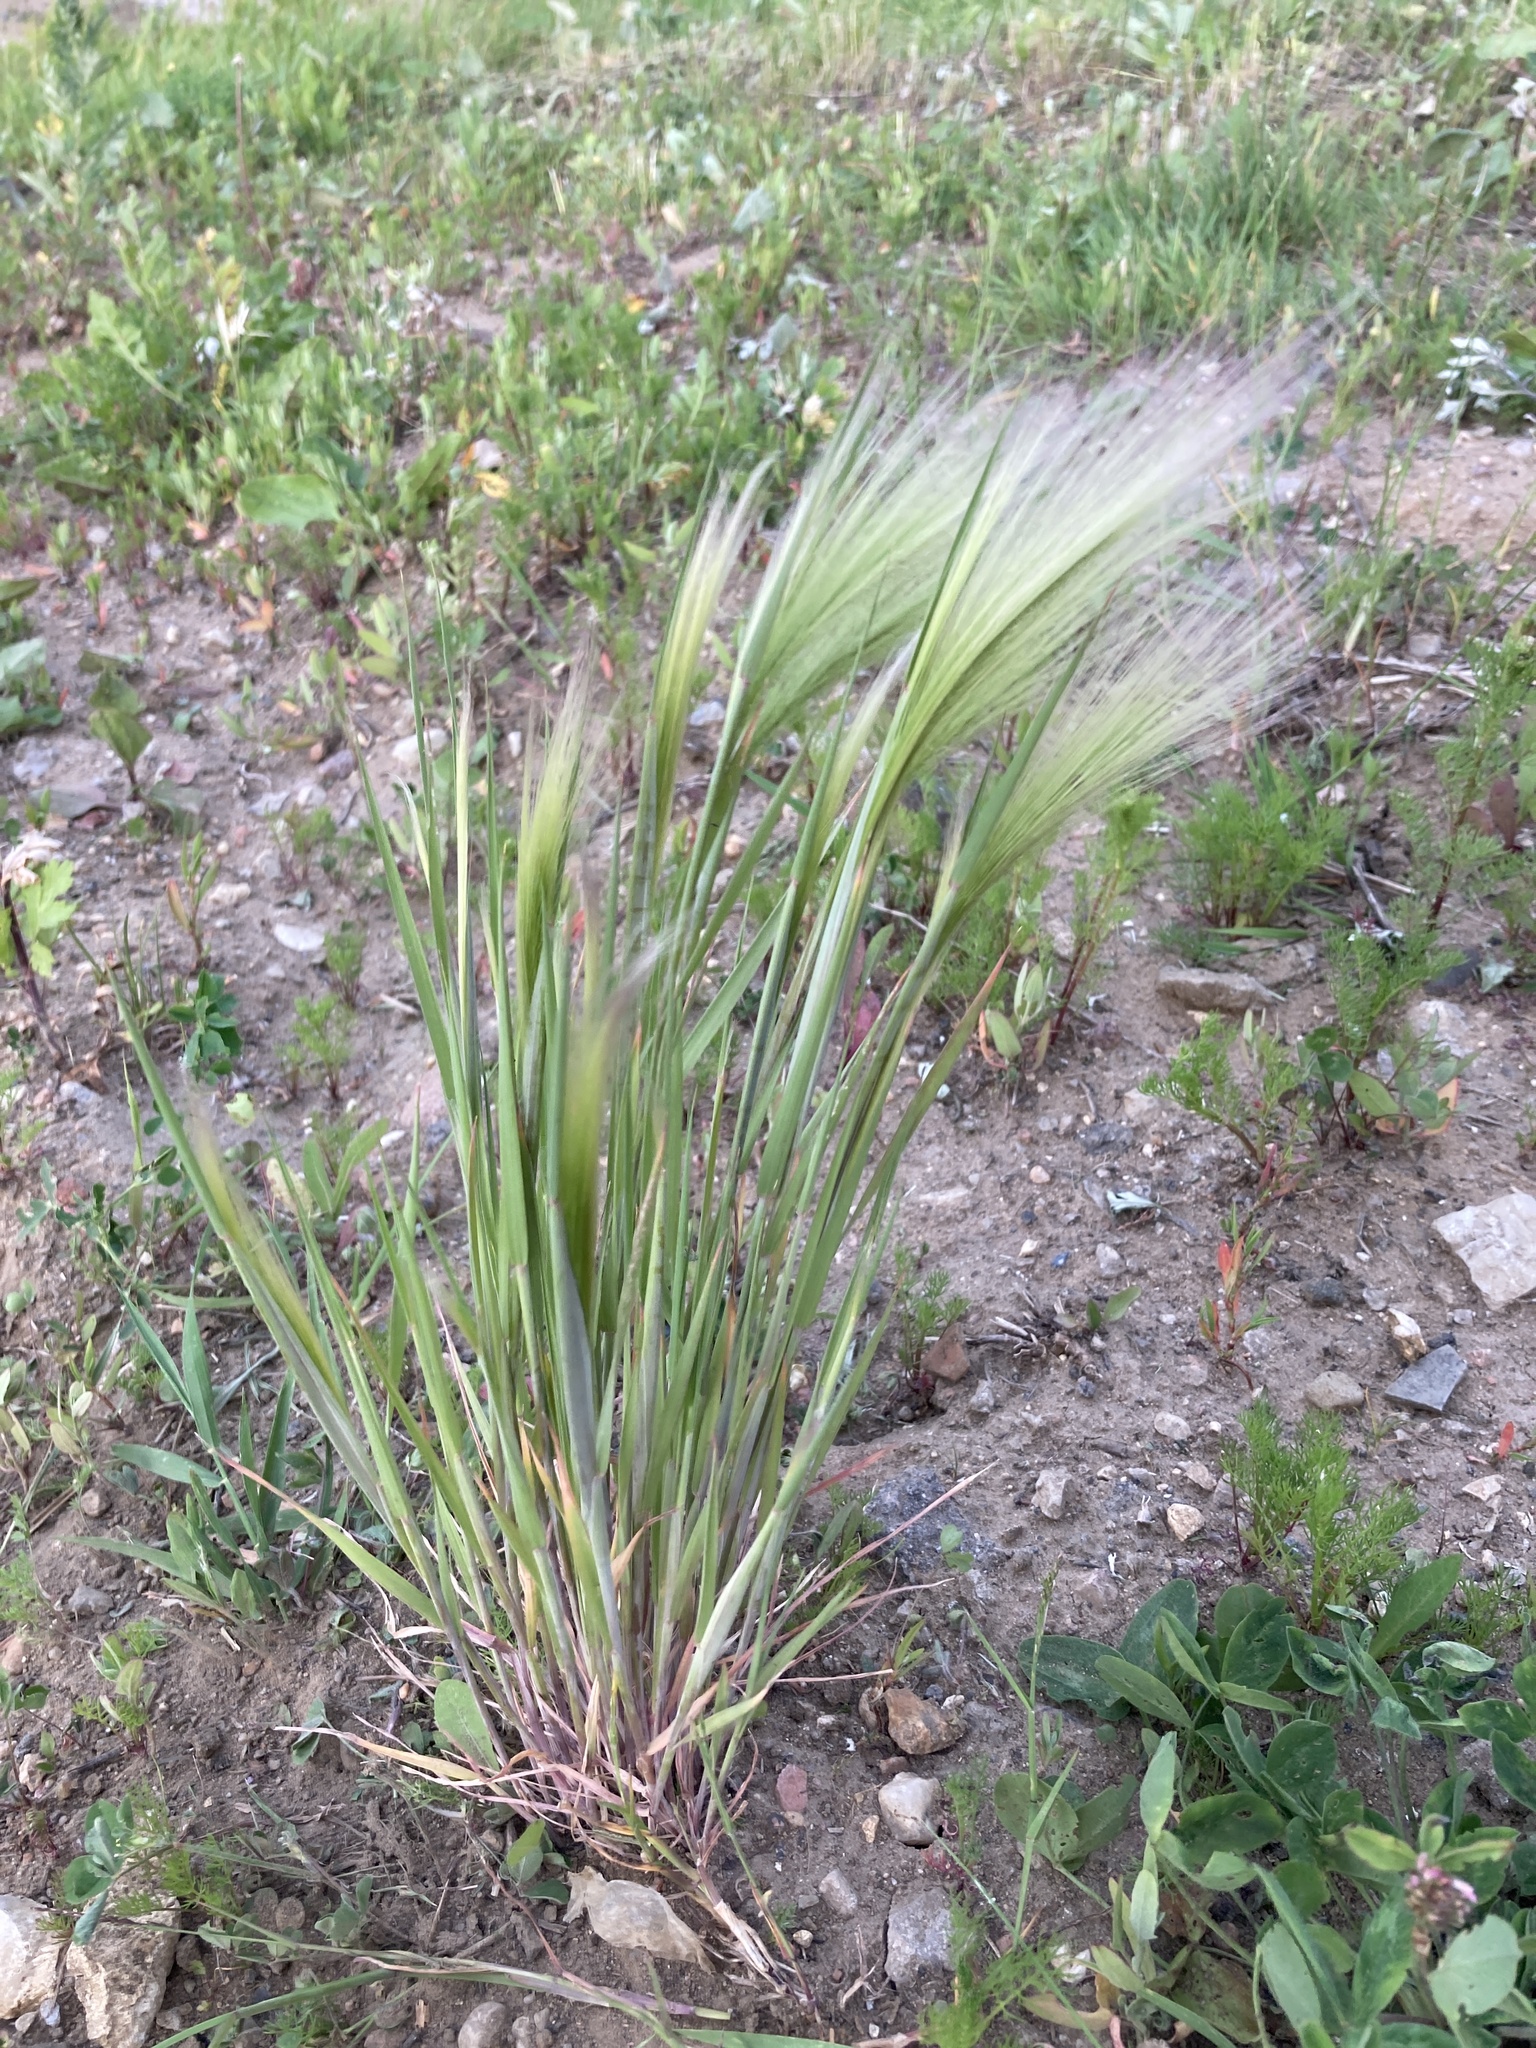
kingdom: Plantae
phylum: Tracheophyta
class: Liliopsida
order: Poales
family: Poaceae
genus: Hordeum
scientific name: Hordeum jubatum
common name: Foxtail barley
